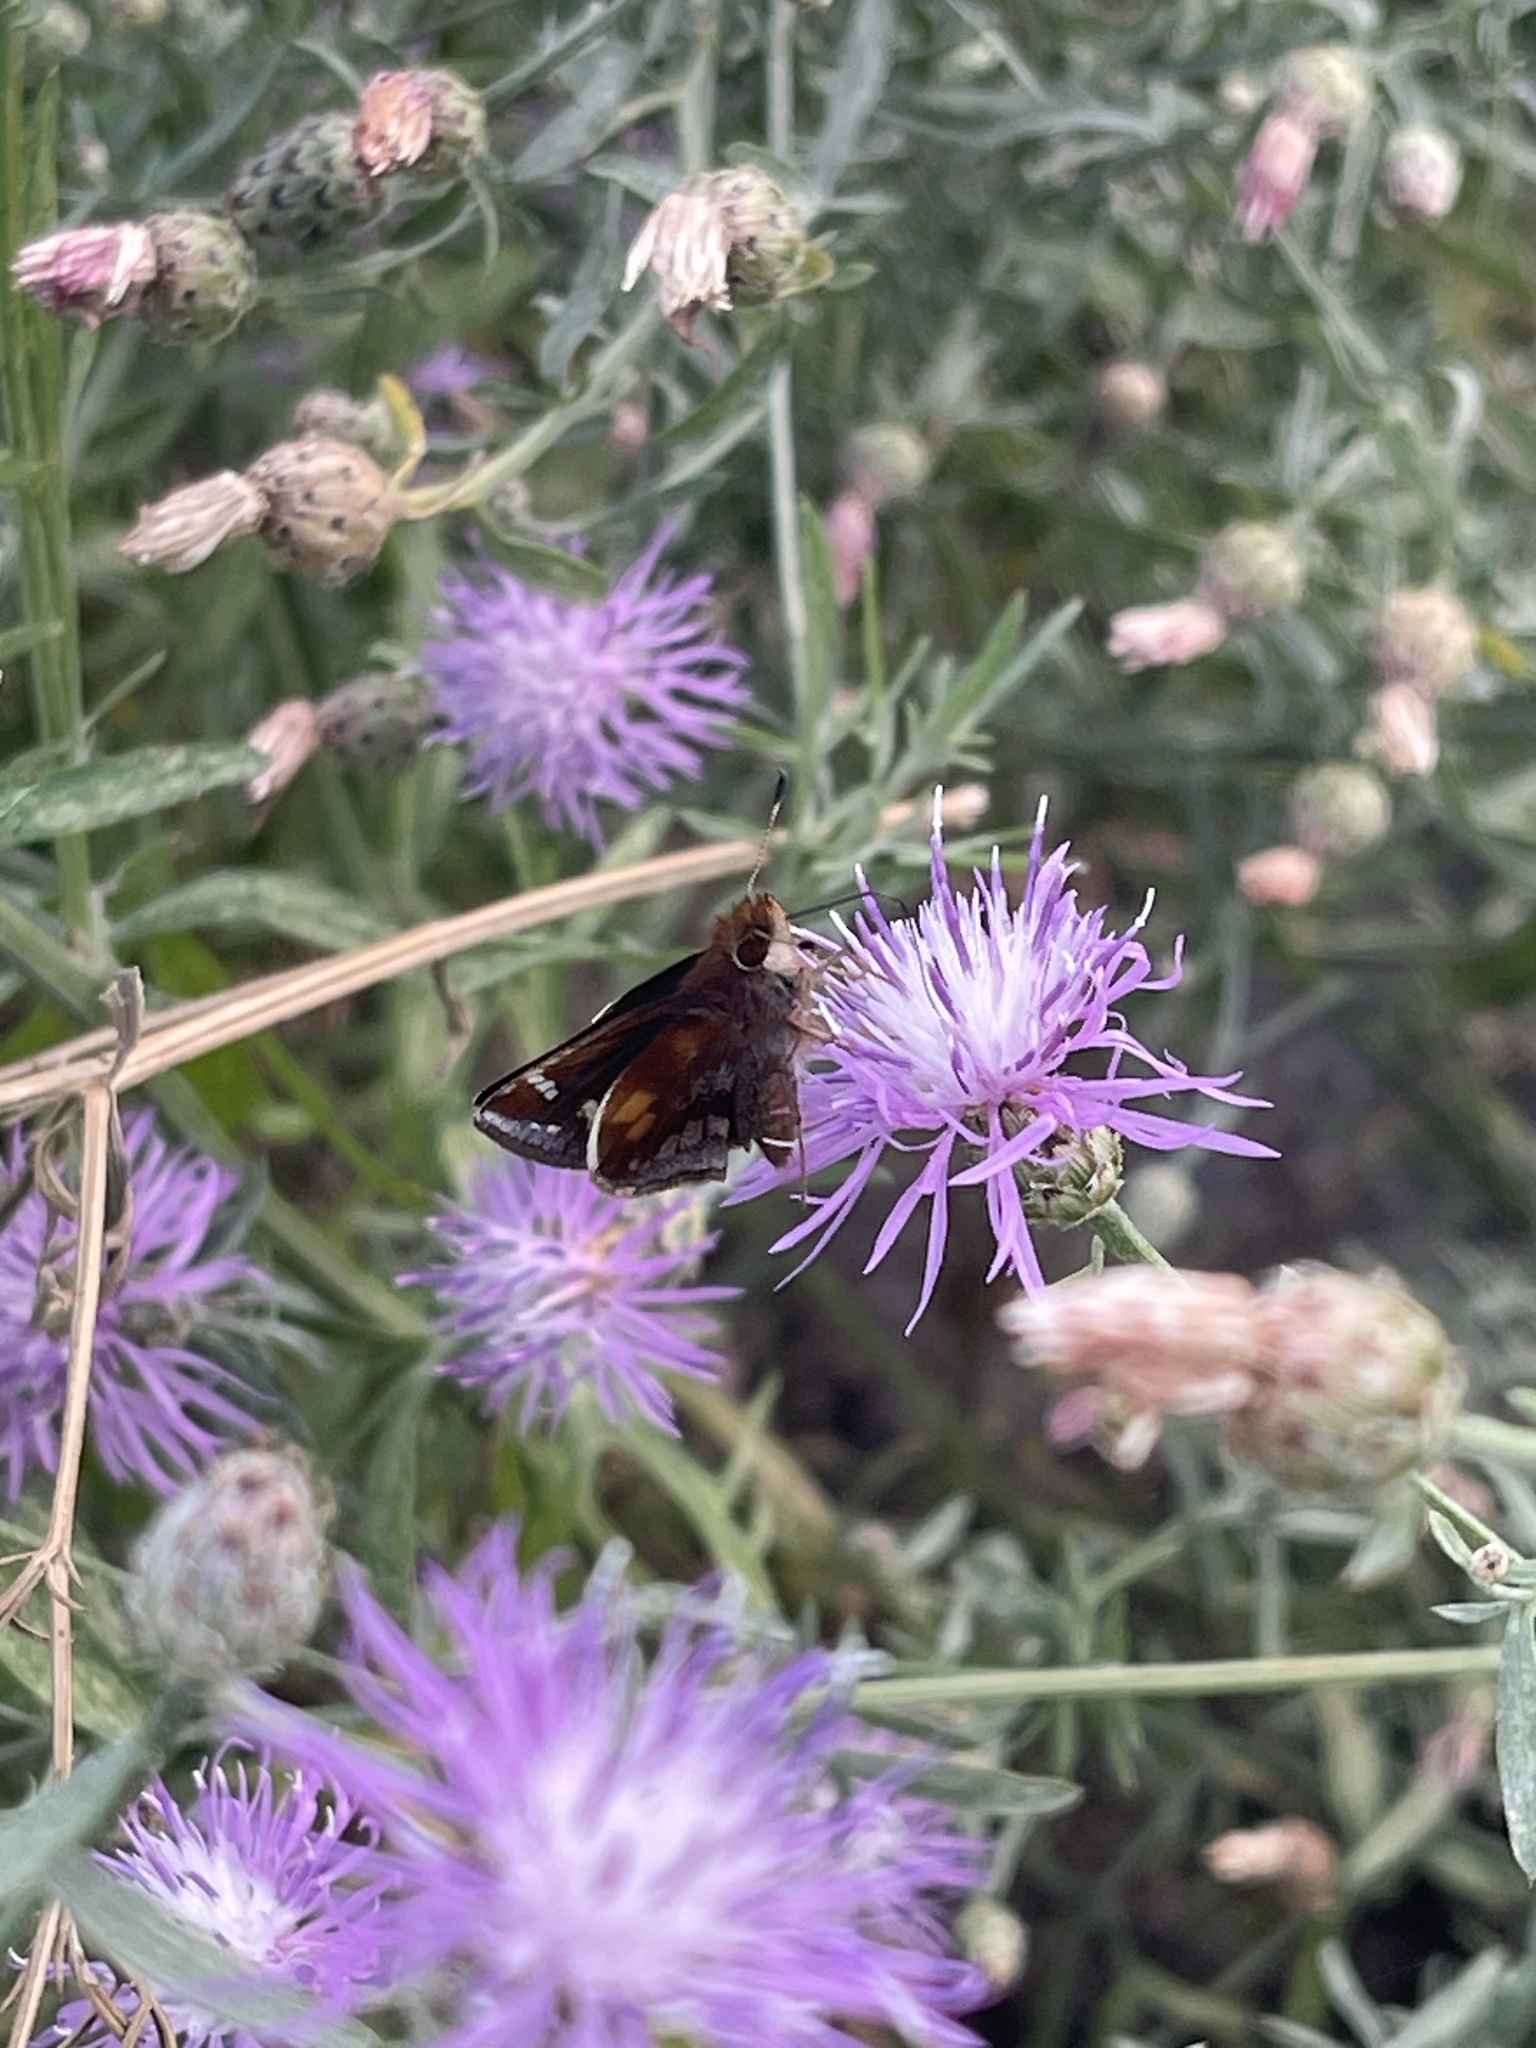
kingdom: Animalia
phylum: Arthropoda
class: Insecta
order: Lepidoptera
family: Hesperiidae
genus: Lon
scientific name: Lon zabulon
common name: Zabulon skipper
